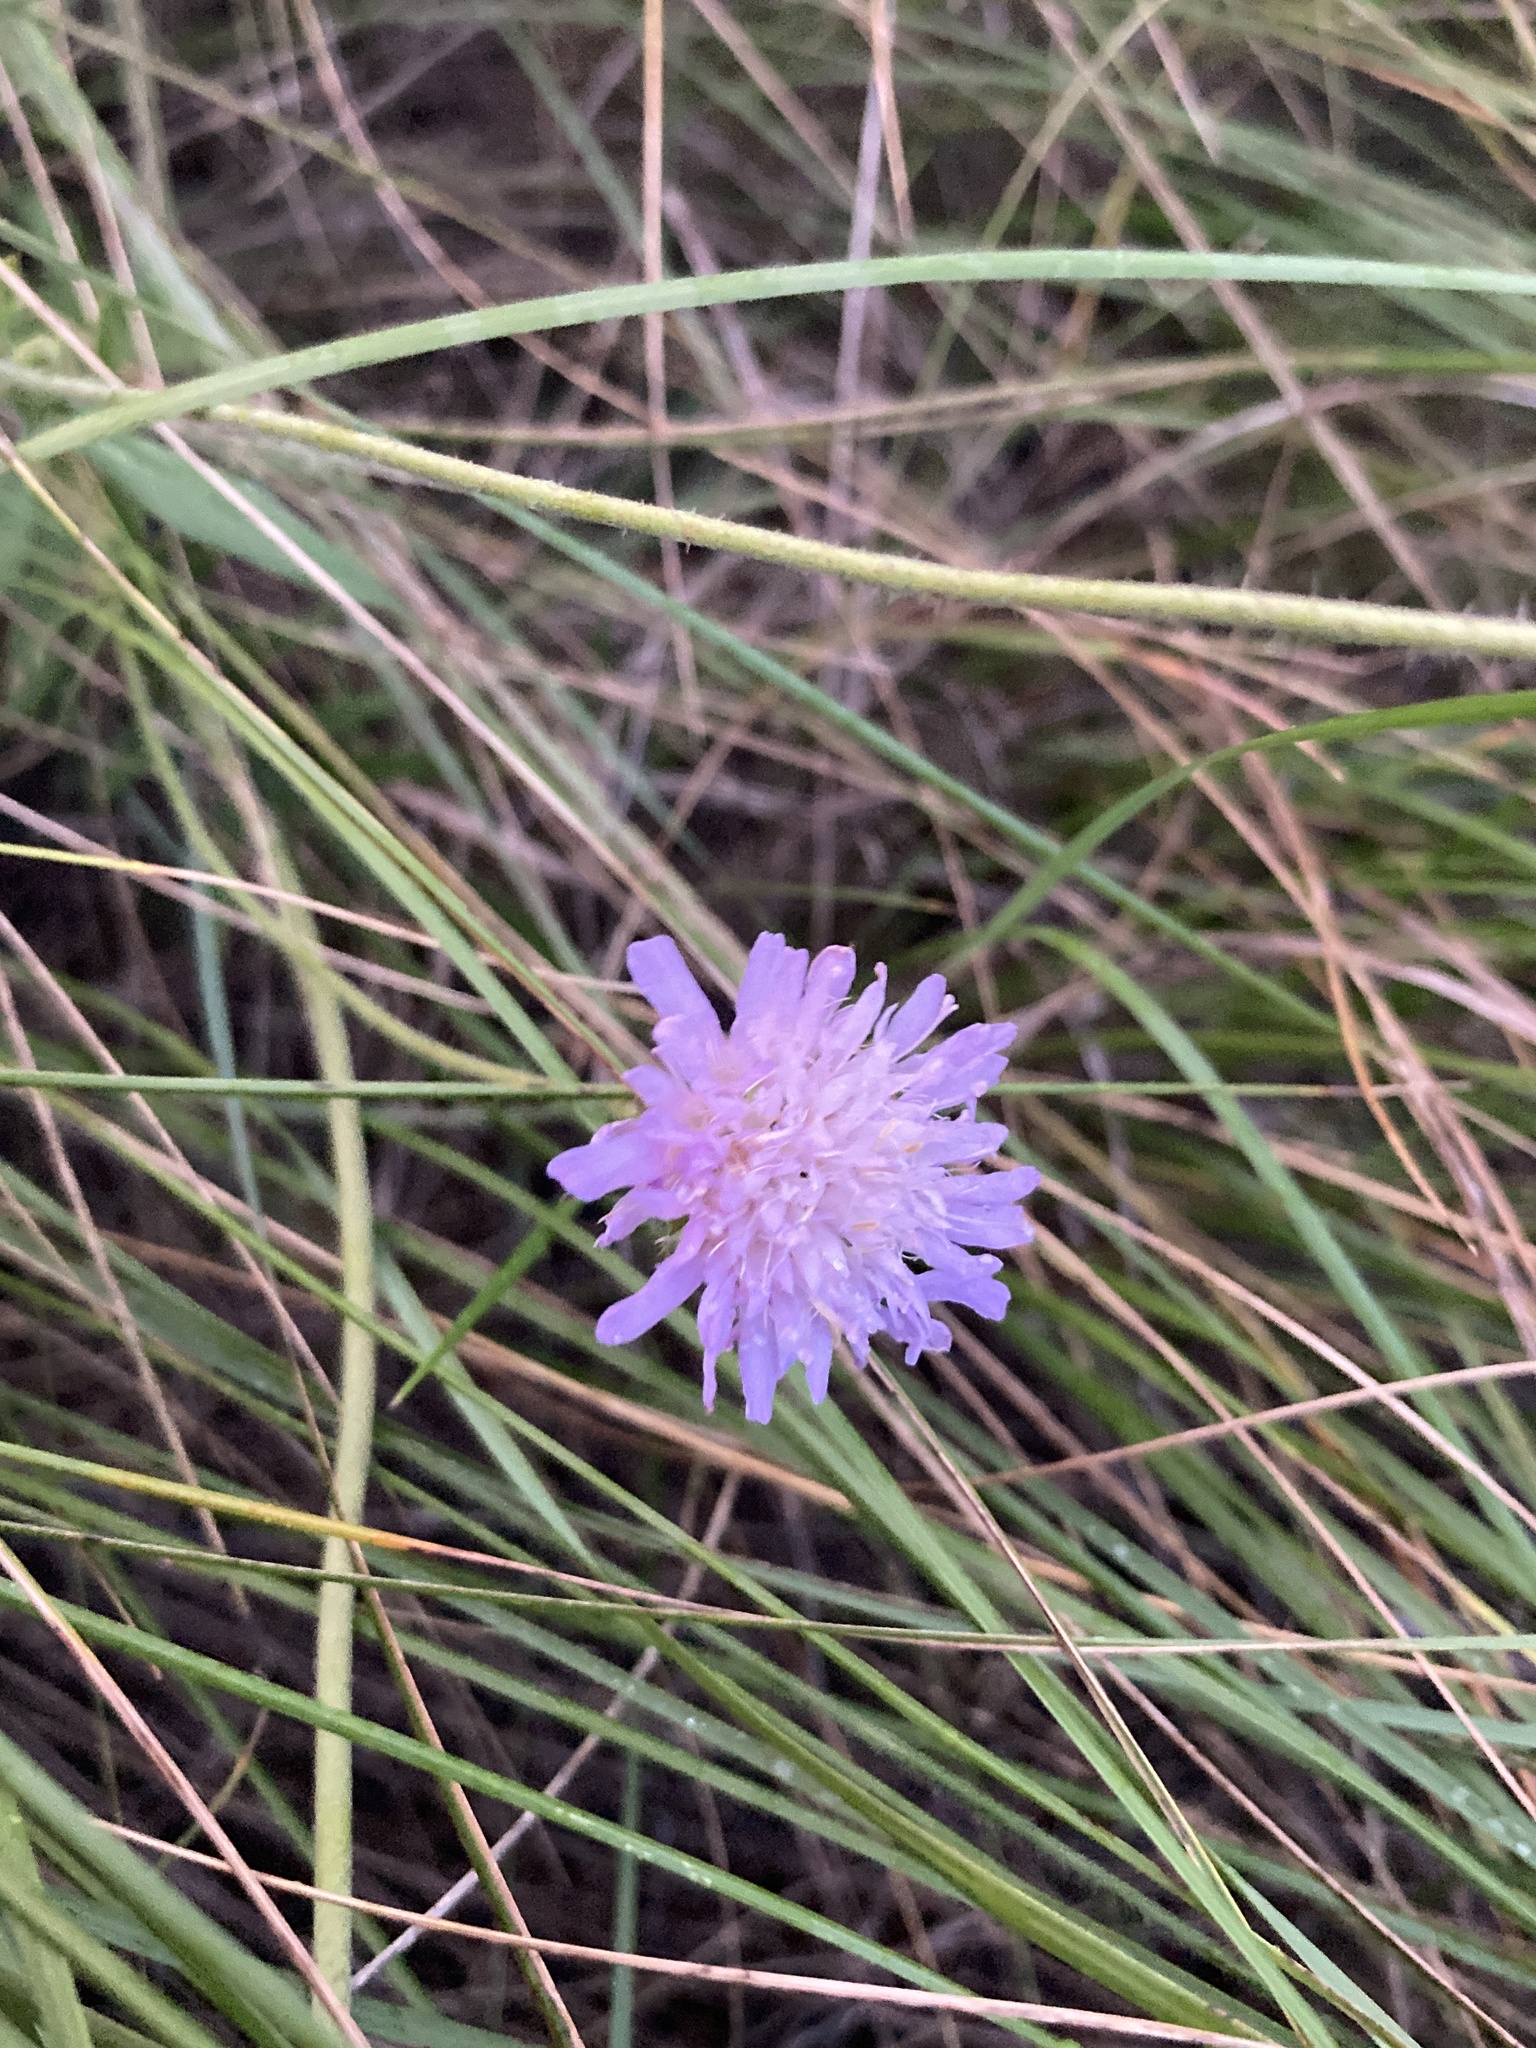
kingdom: Plantae
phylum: Tracheophyta
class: Magnoliopsida
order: Dipsacales
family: Caprifoliaceae
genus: Knautia
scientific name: Knautia arvensis
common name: Field scabiosa
